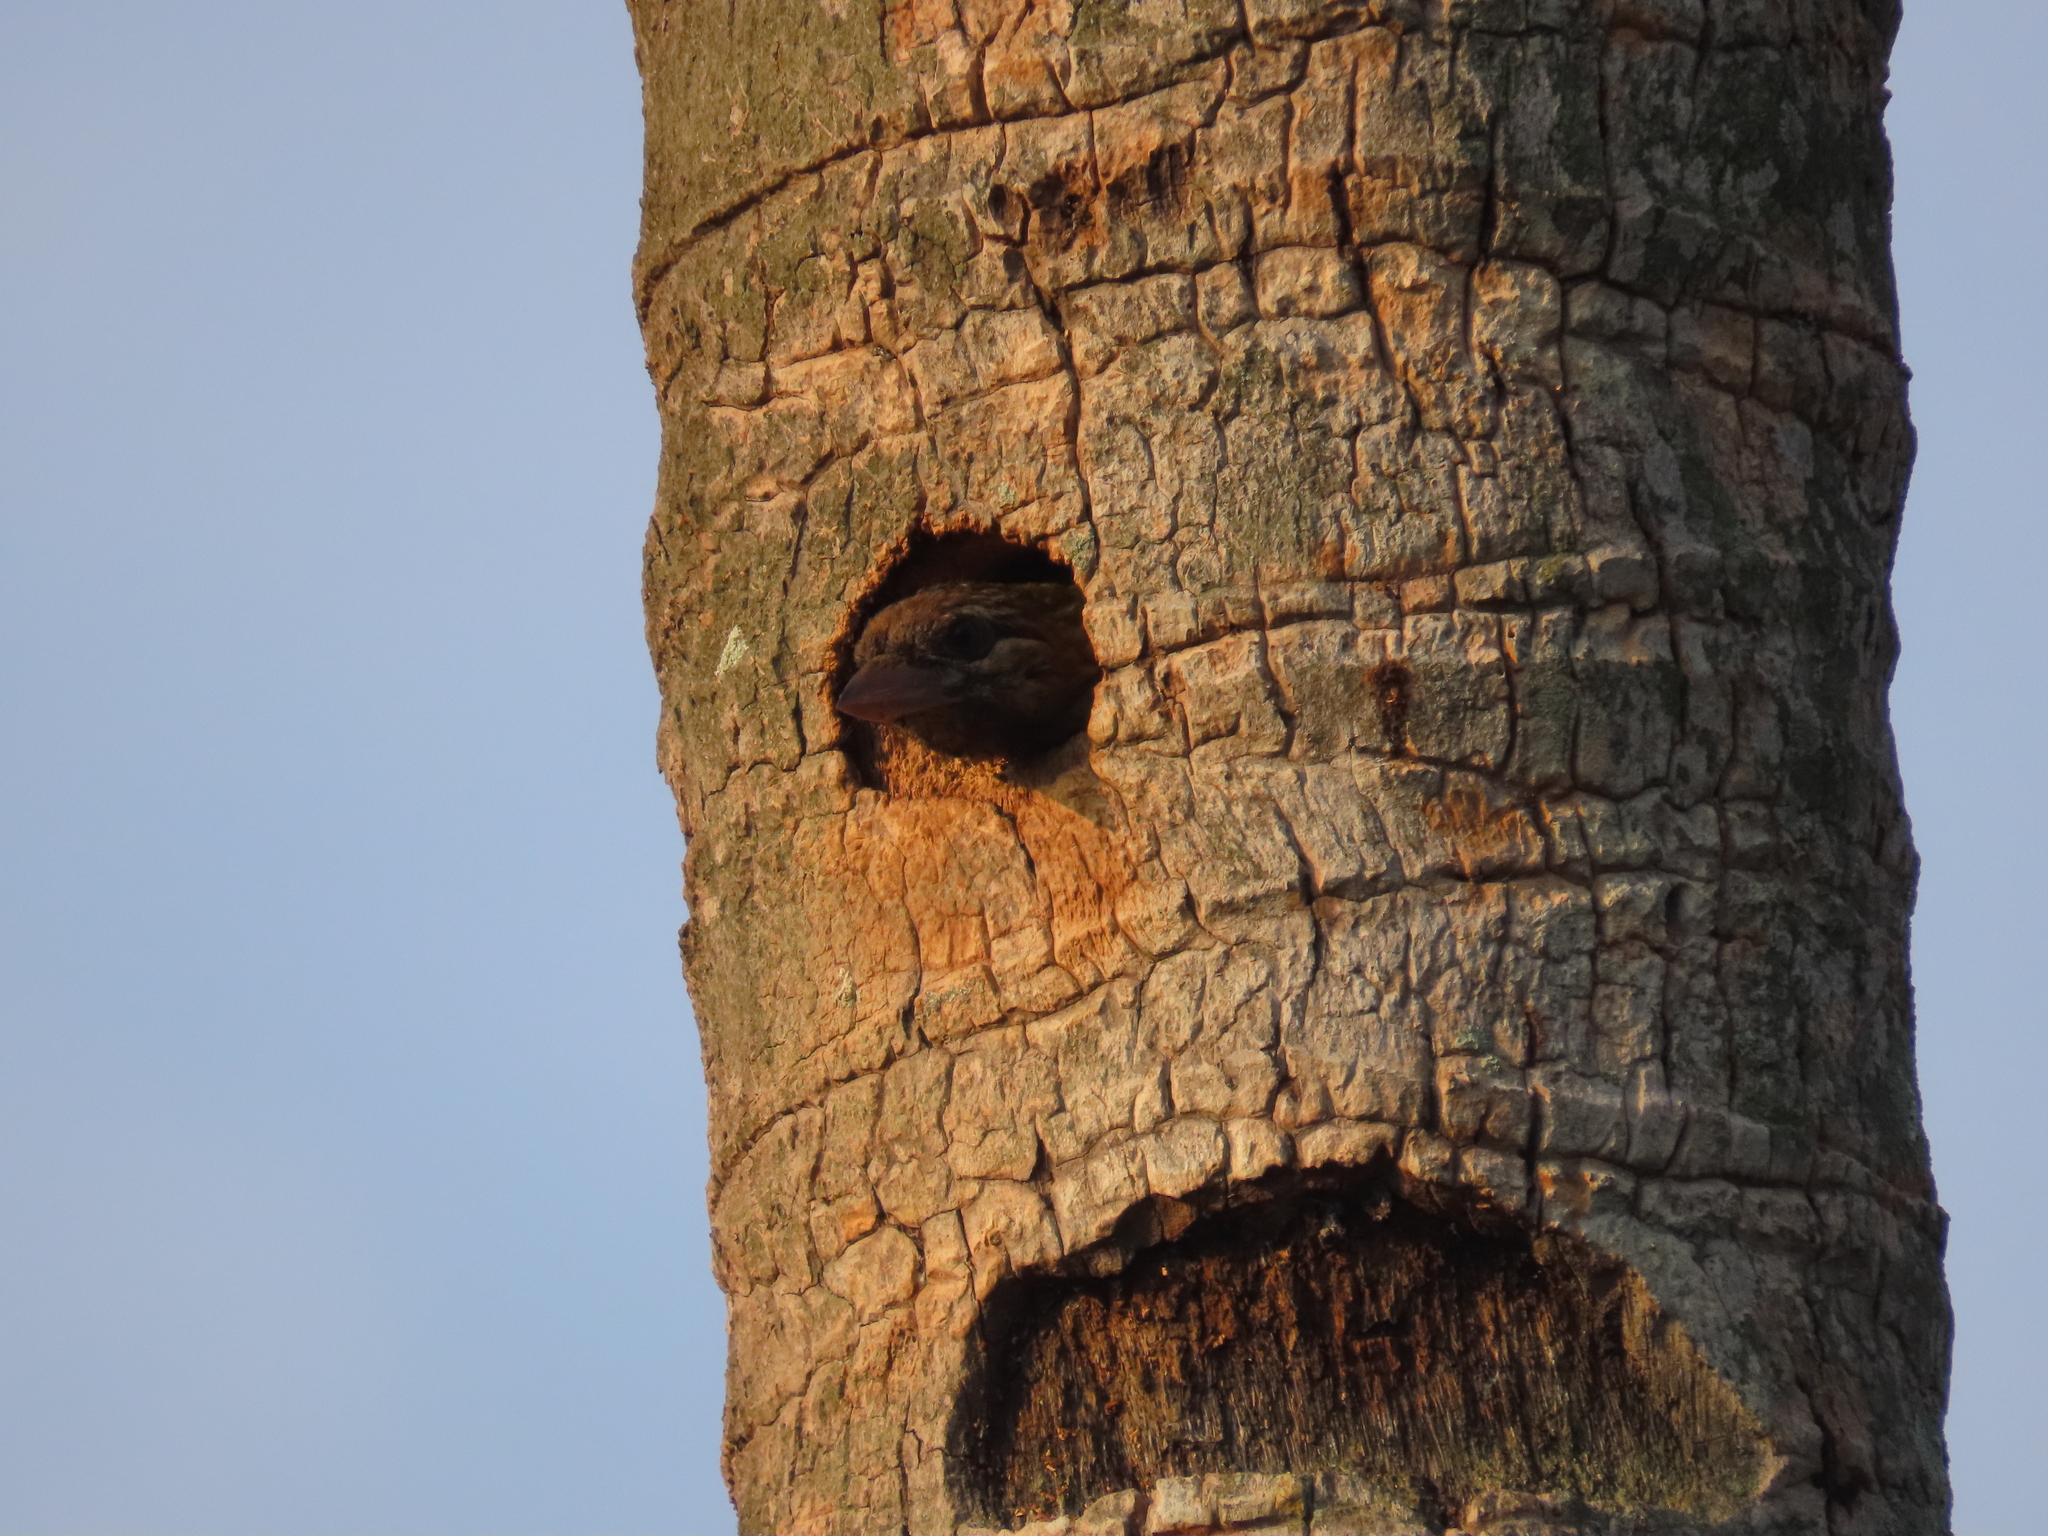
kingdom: Animalia
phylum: Chordata
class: Aves
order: Piciformes
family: Megalaimidae
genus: Psilopogon
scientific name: Psilopogon viridis
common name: White-cheeked barbet
